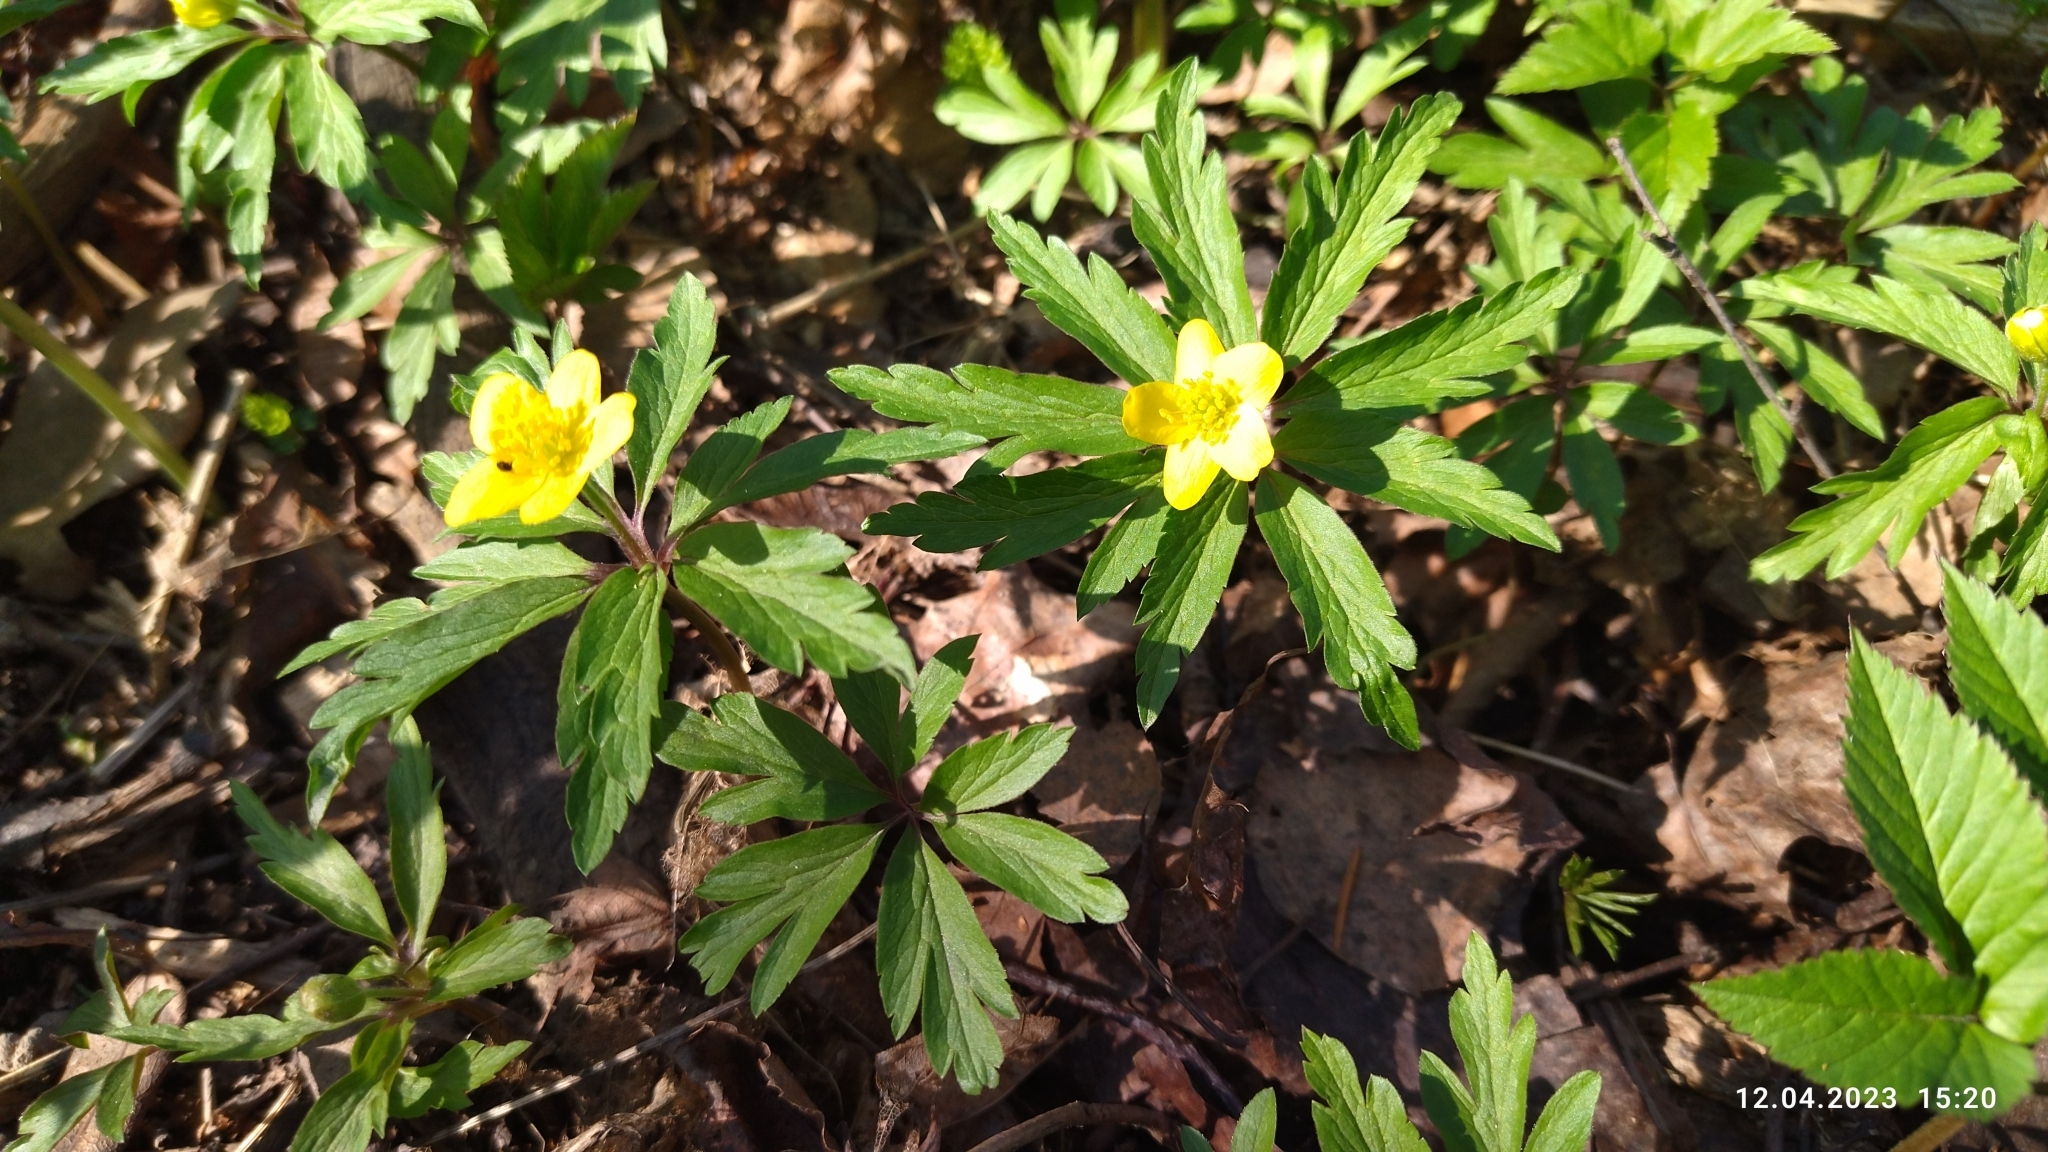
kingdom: Plantae
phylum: Tracheophyta
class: Magnoliopsida
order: Ranunculales
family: Ranunculaceae
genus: Anemone
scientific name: Anemone ranunculoides
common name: Yellow anemone
